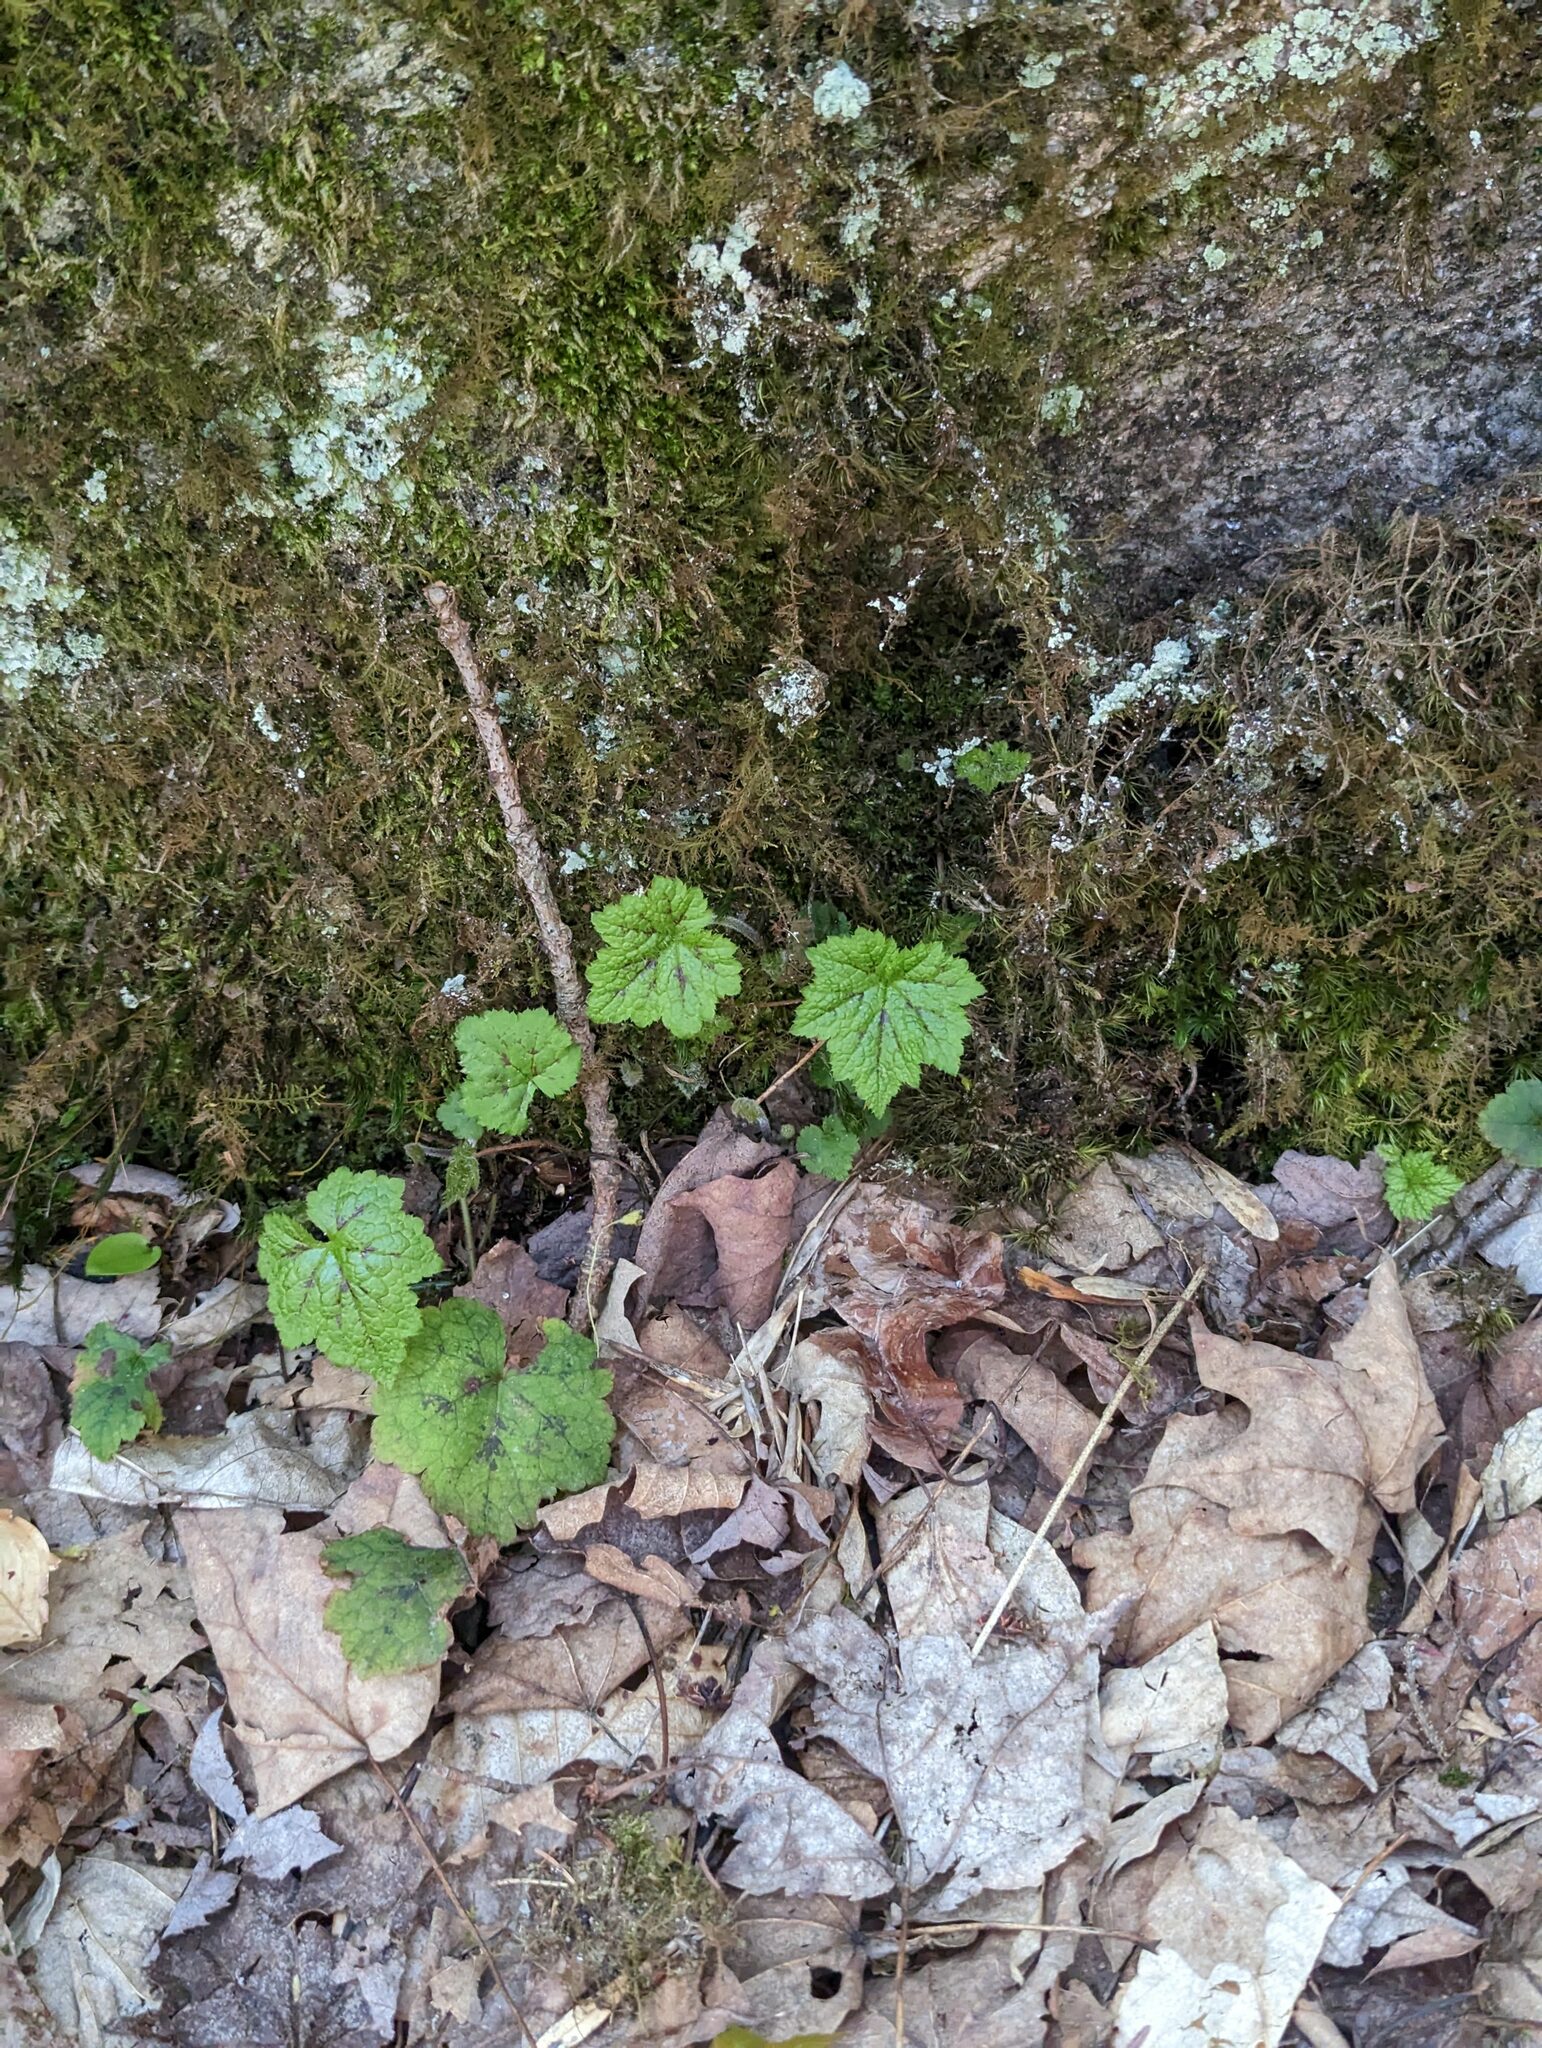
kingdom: Plantae
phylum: Tracheophyta
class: Magnoliopsida
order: Saxifragales
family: Saxifragaceae
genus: Tiarella
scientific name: Tiarella stolonifera
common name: Stoloniferous foamflower
